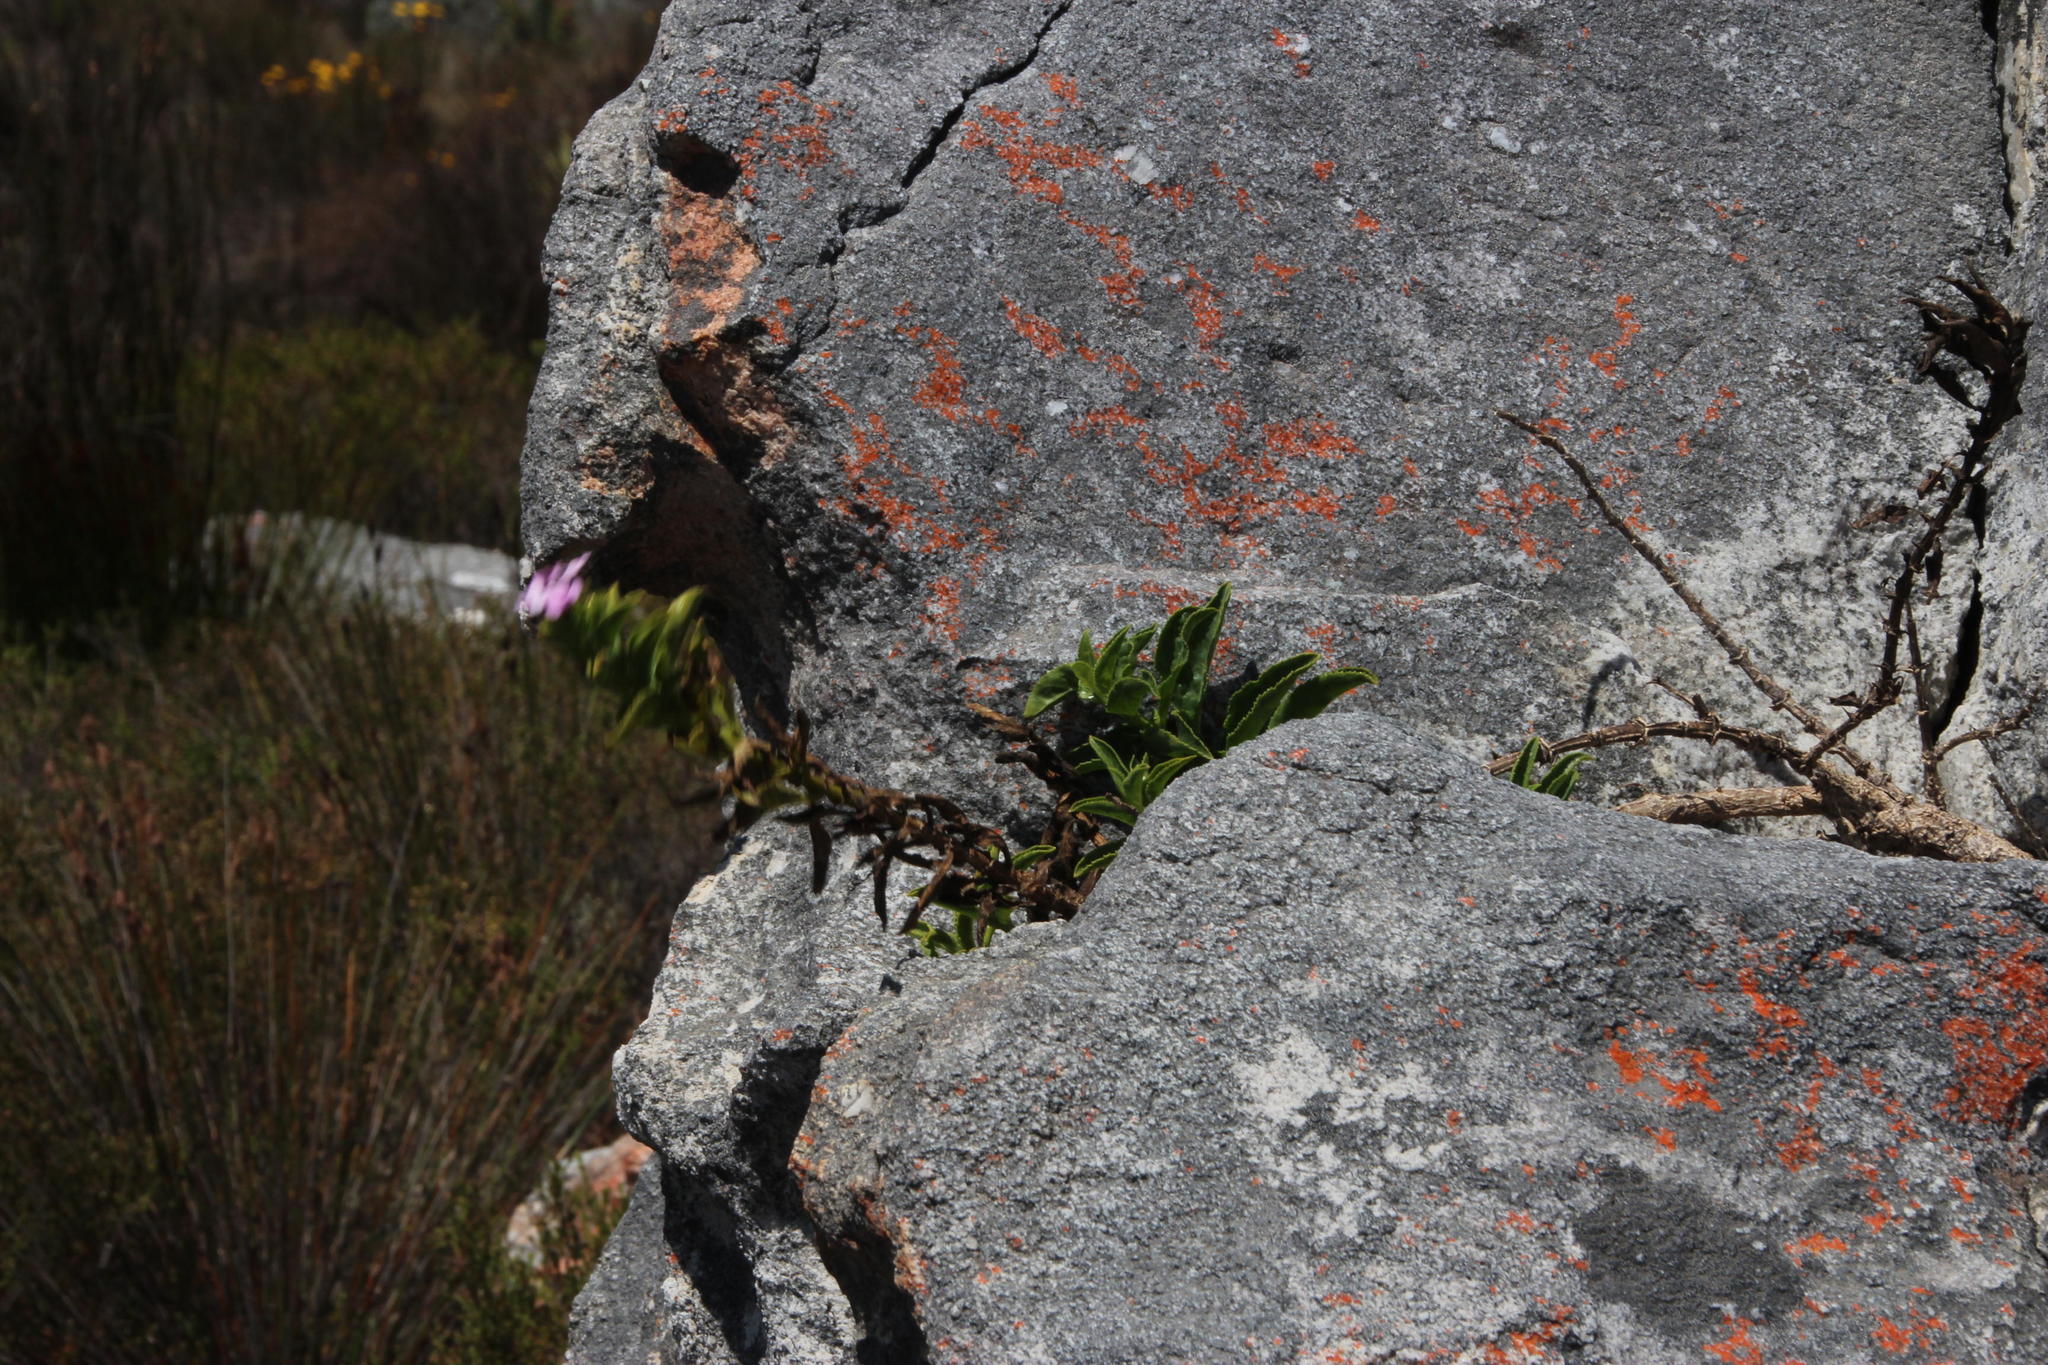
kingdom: Plantae
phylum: Tracheophyta
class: Magnoliopsida
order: Lamiales
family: Scrophulariaceae
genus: Teedia
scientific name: Teedia lucida
